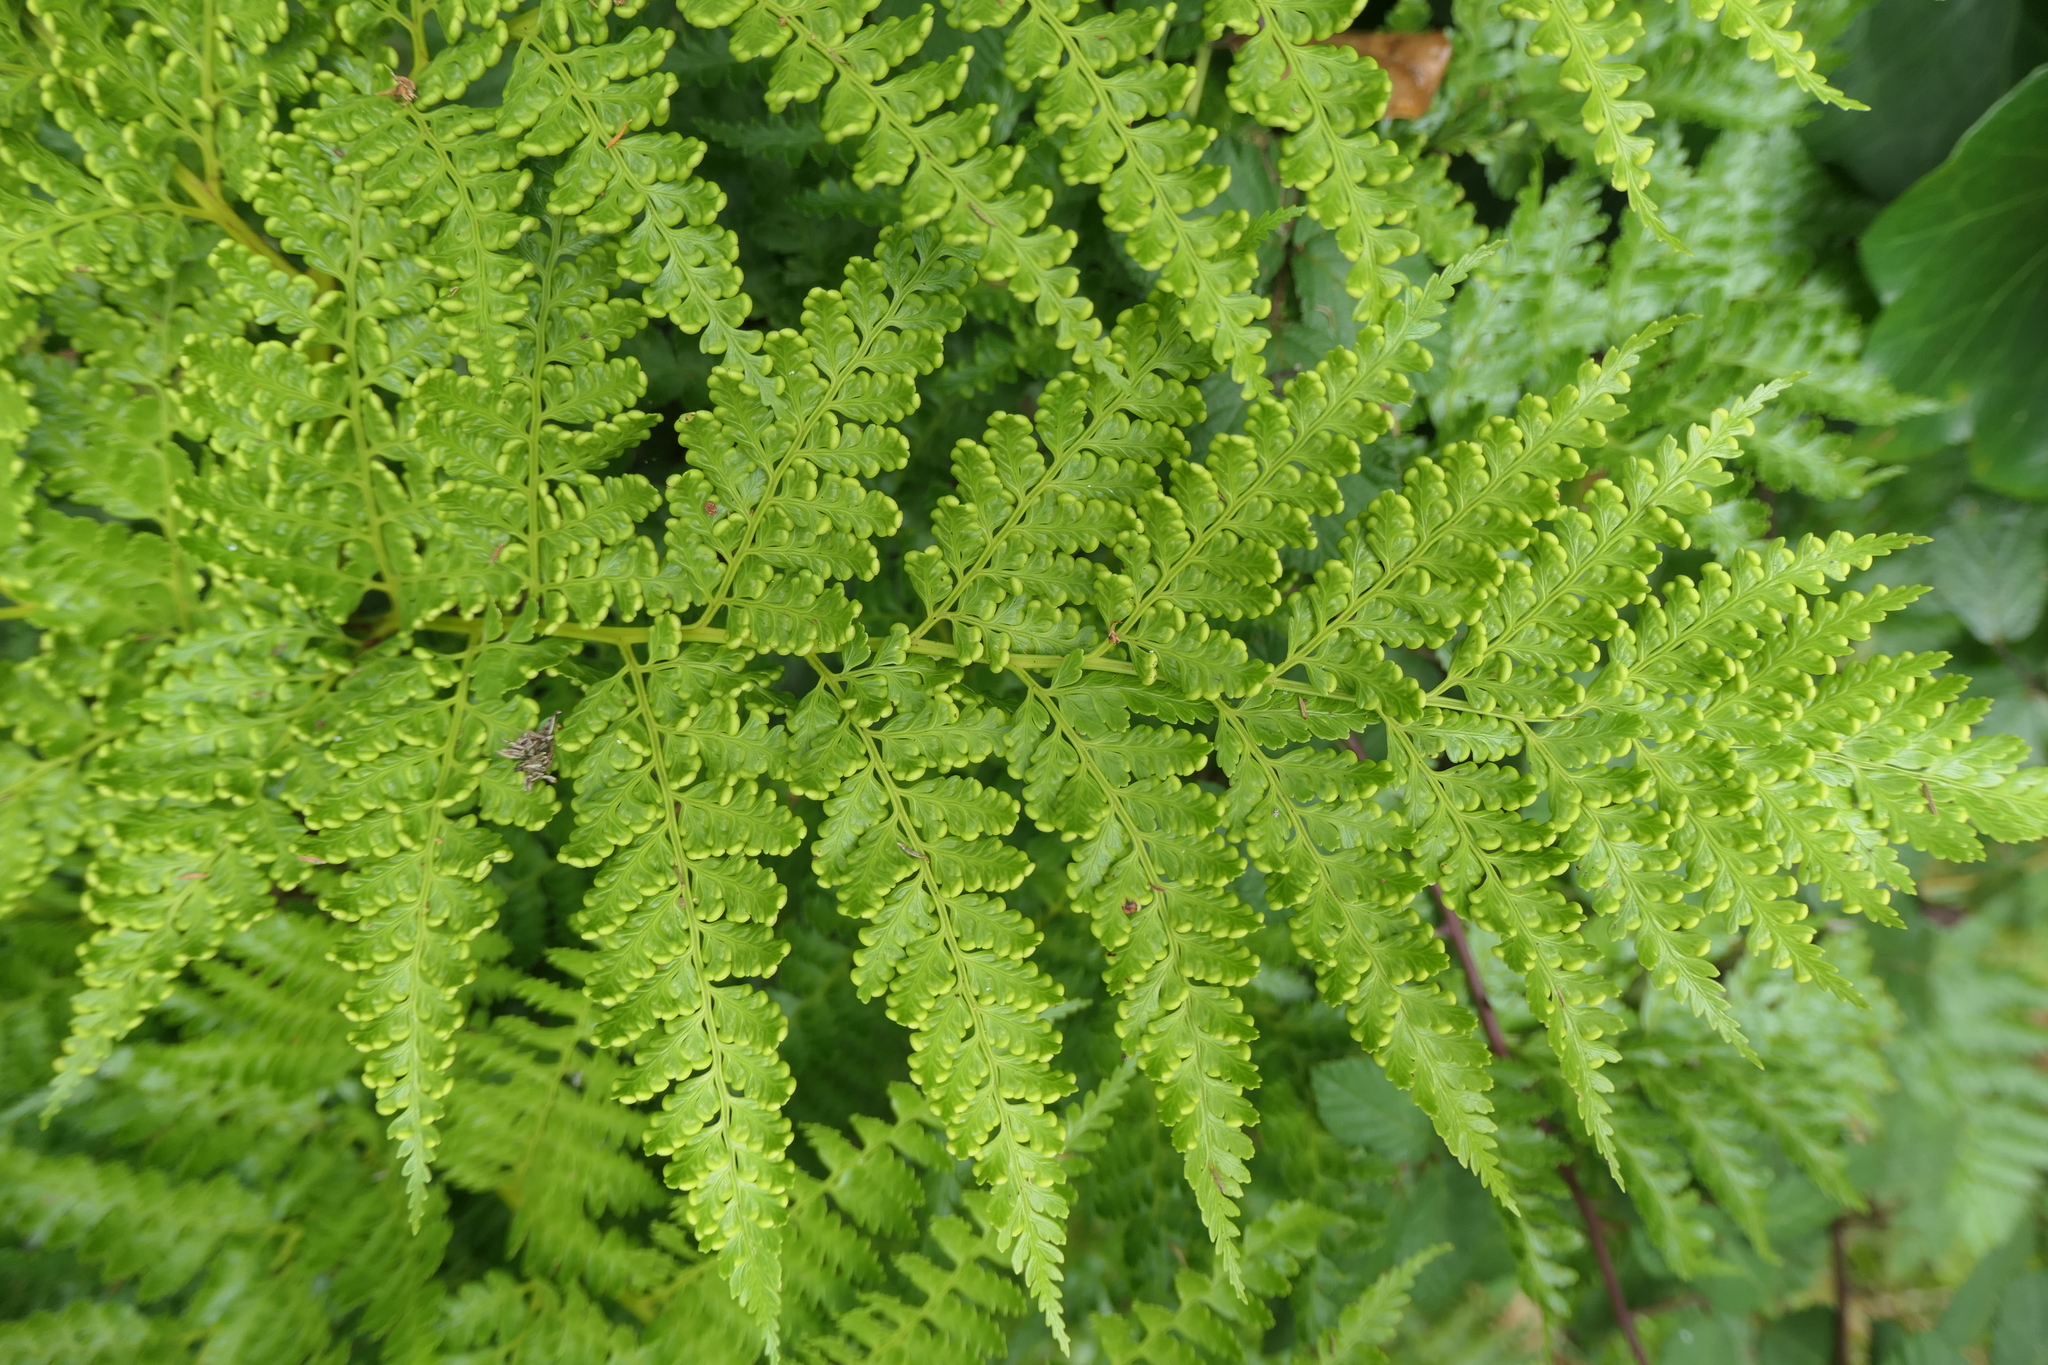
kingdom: Plantae
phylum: Tracheophyta
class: Polypodiopsida
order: Cyatheales
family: Culcitaceae
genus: Culcita
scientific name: Culcita macrocarpa
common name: Woolly tree fern
